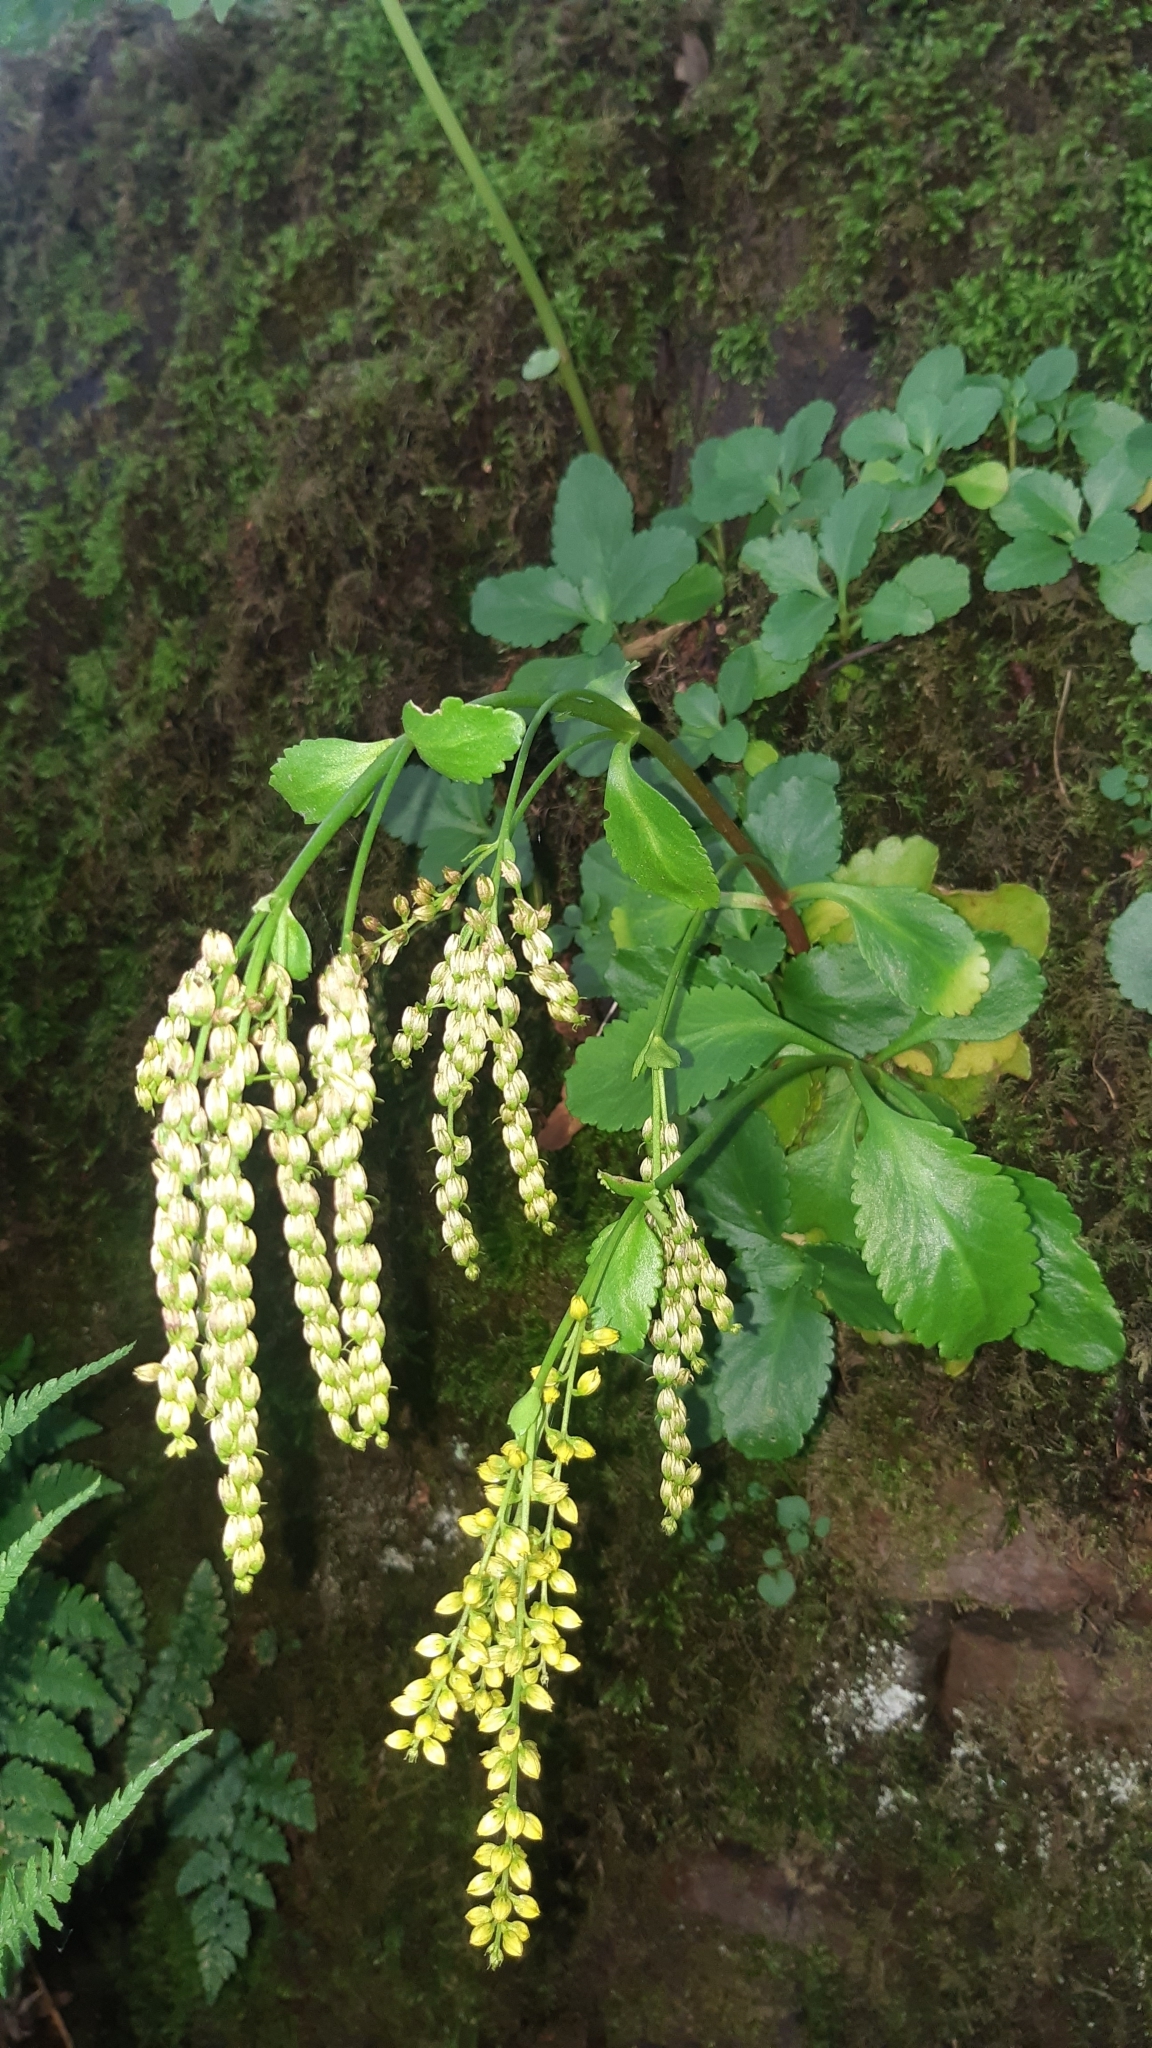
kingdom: Plantae
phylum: Tracheophyta
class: Magnoliopsida
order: Saxifragales
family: Crassulaceae
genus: Umbilicus
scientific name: Umbilicus oppositifolius
